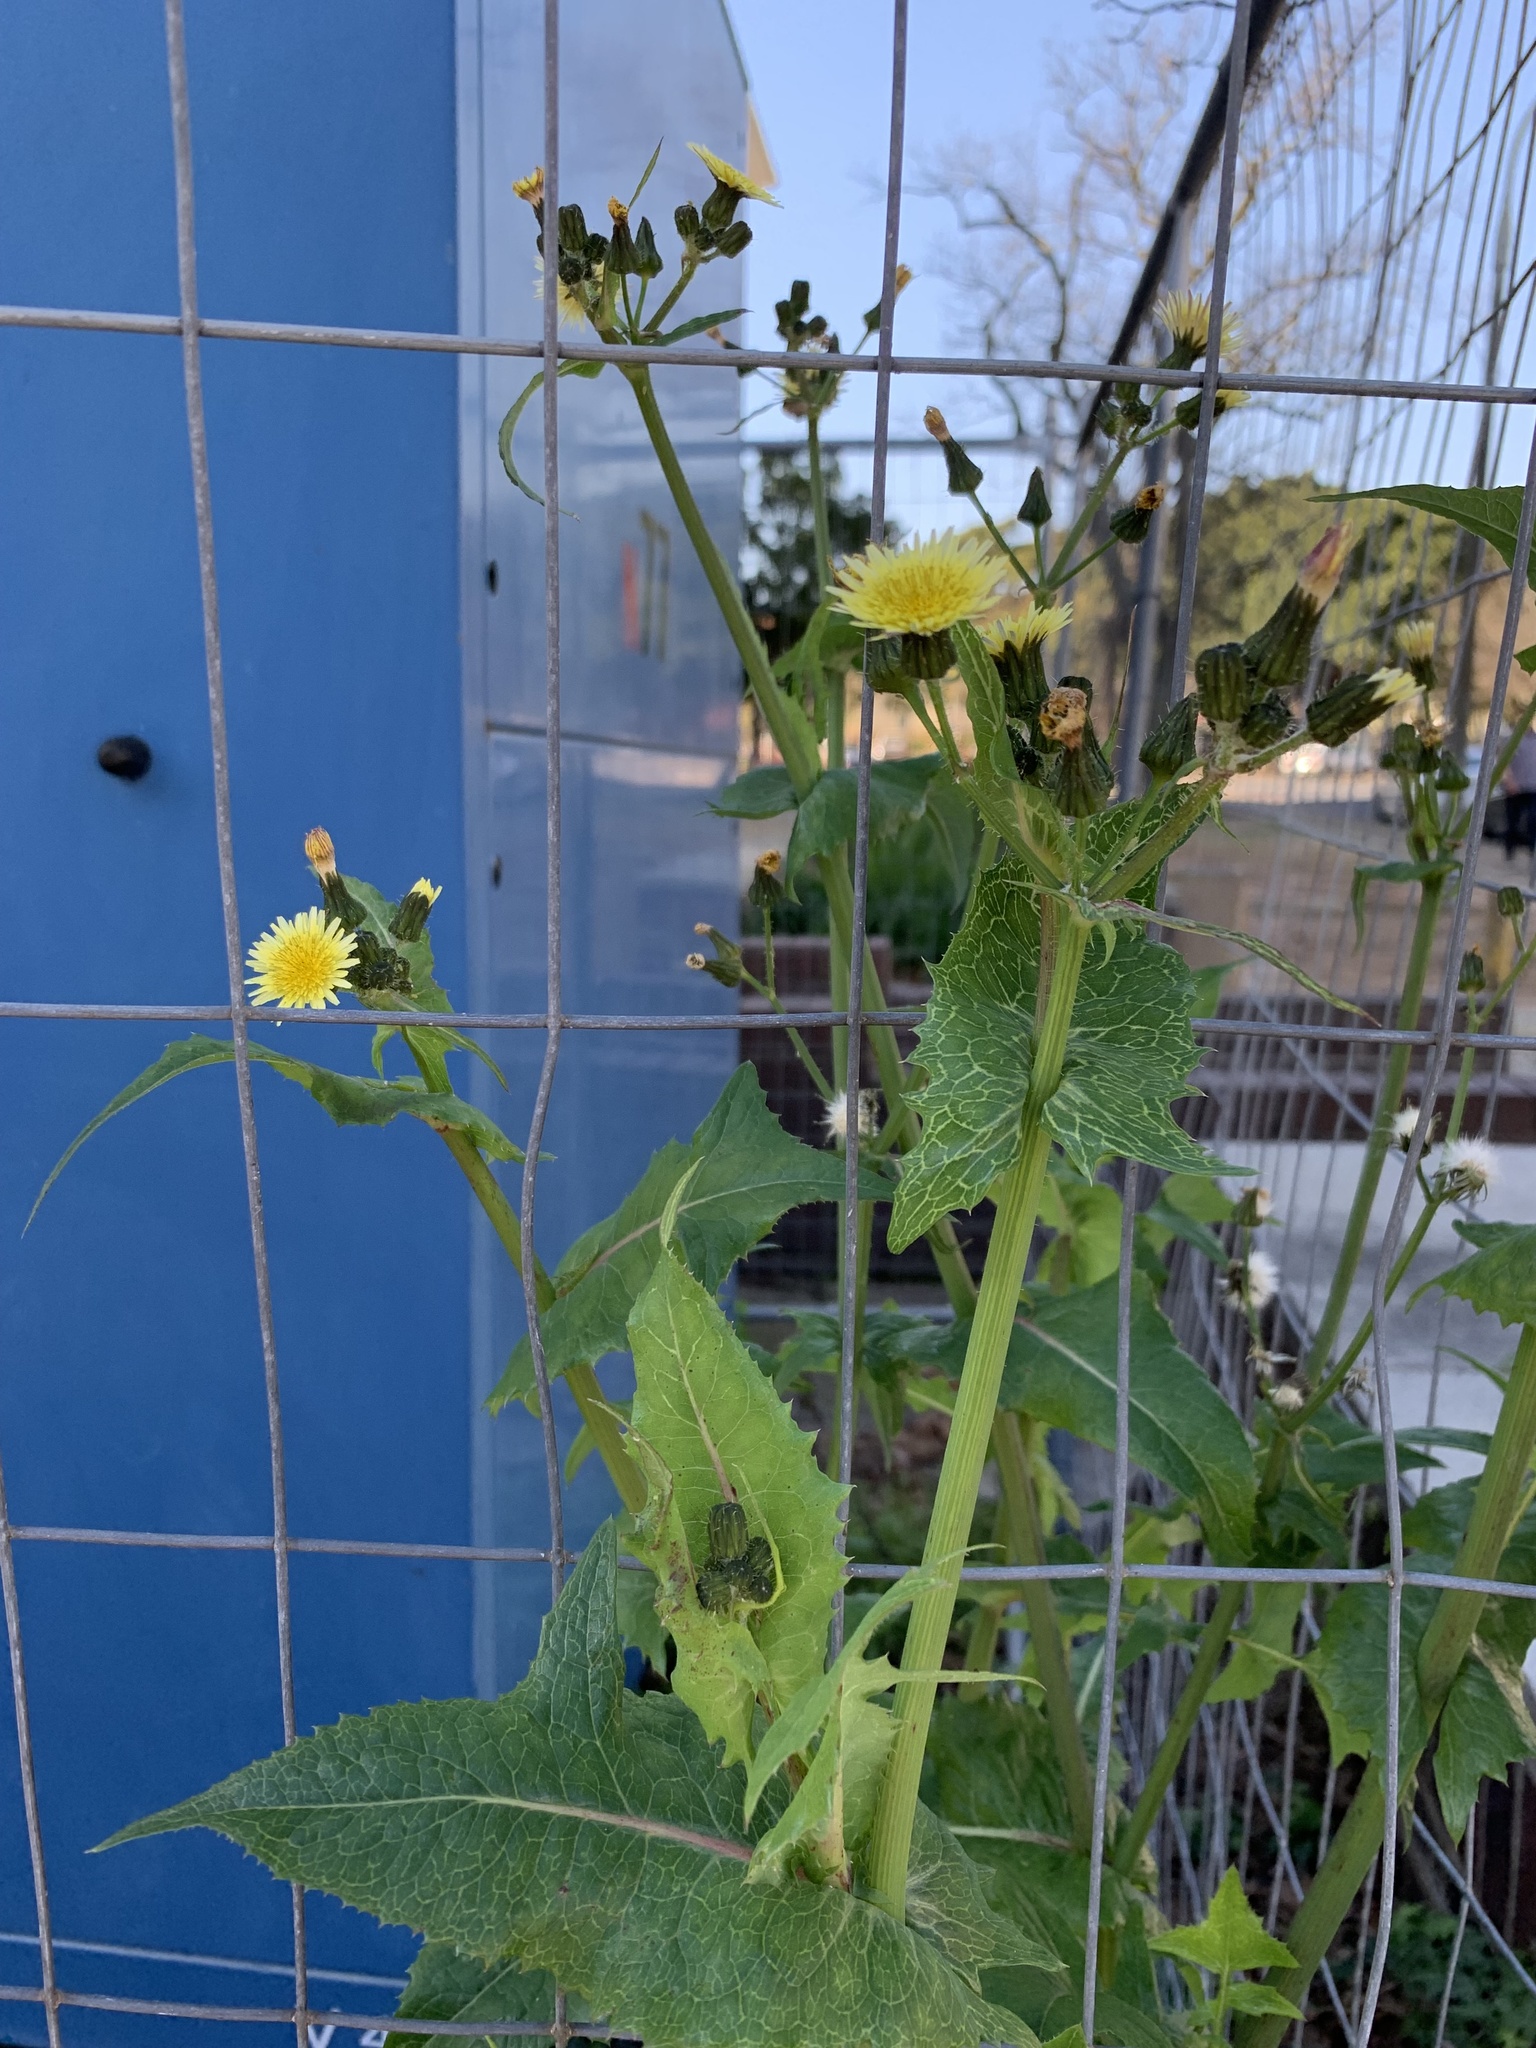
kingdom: Plantae
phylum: Tracheophyta
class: Magnoliopsida
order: Asterales
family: Asteraceae
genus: Sonchus
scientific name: Sonchus oleraceus
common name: Common sowthistle
